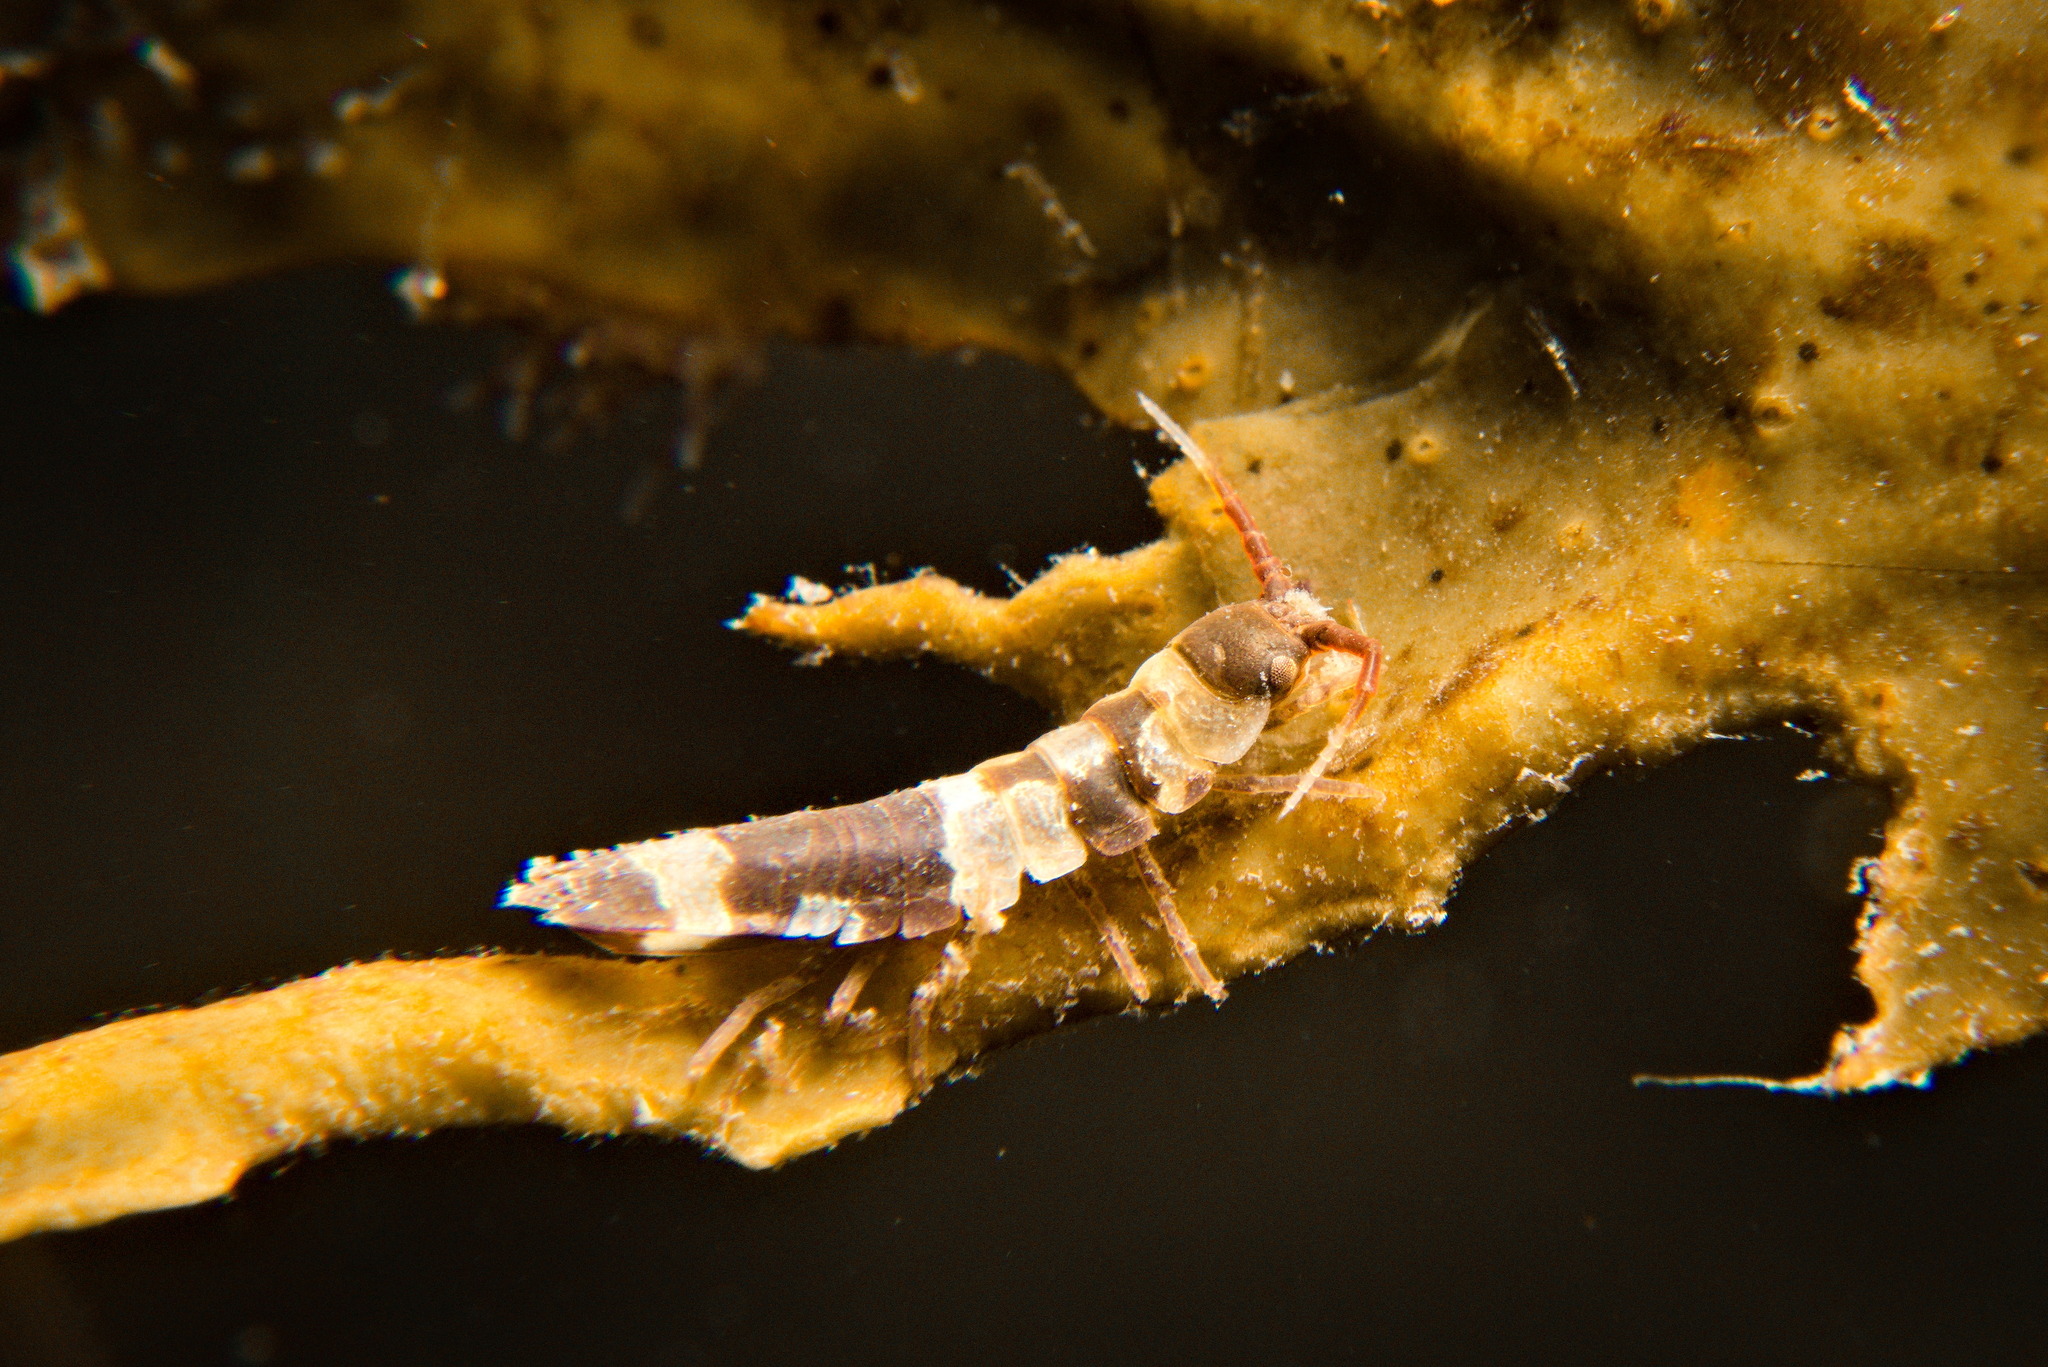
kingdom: Animalia
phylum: Arthropoda
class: Malacostraca
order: Isopoda
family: Idoteidae
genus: Idotea
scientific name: Idotea balthica
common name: Baltic isopod
